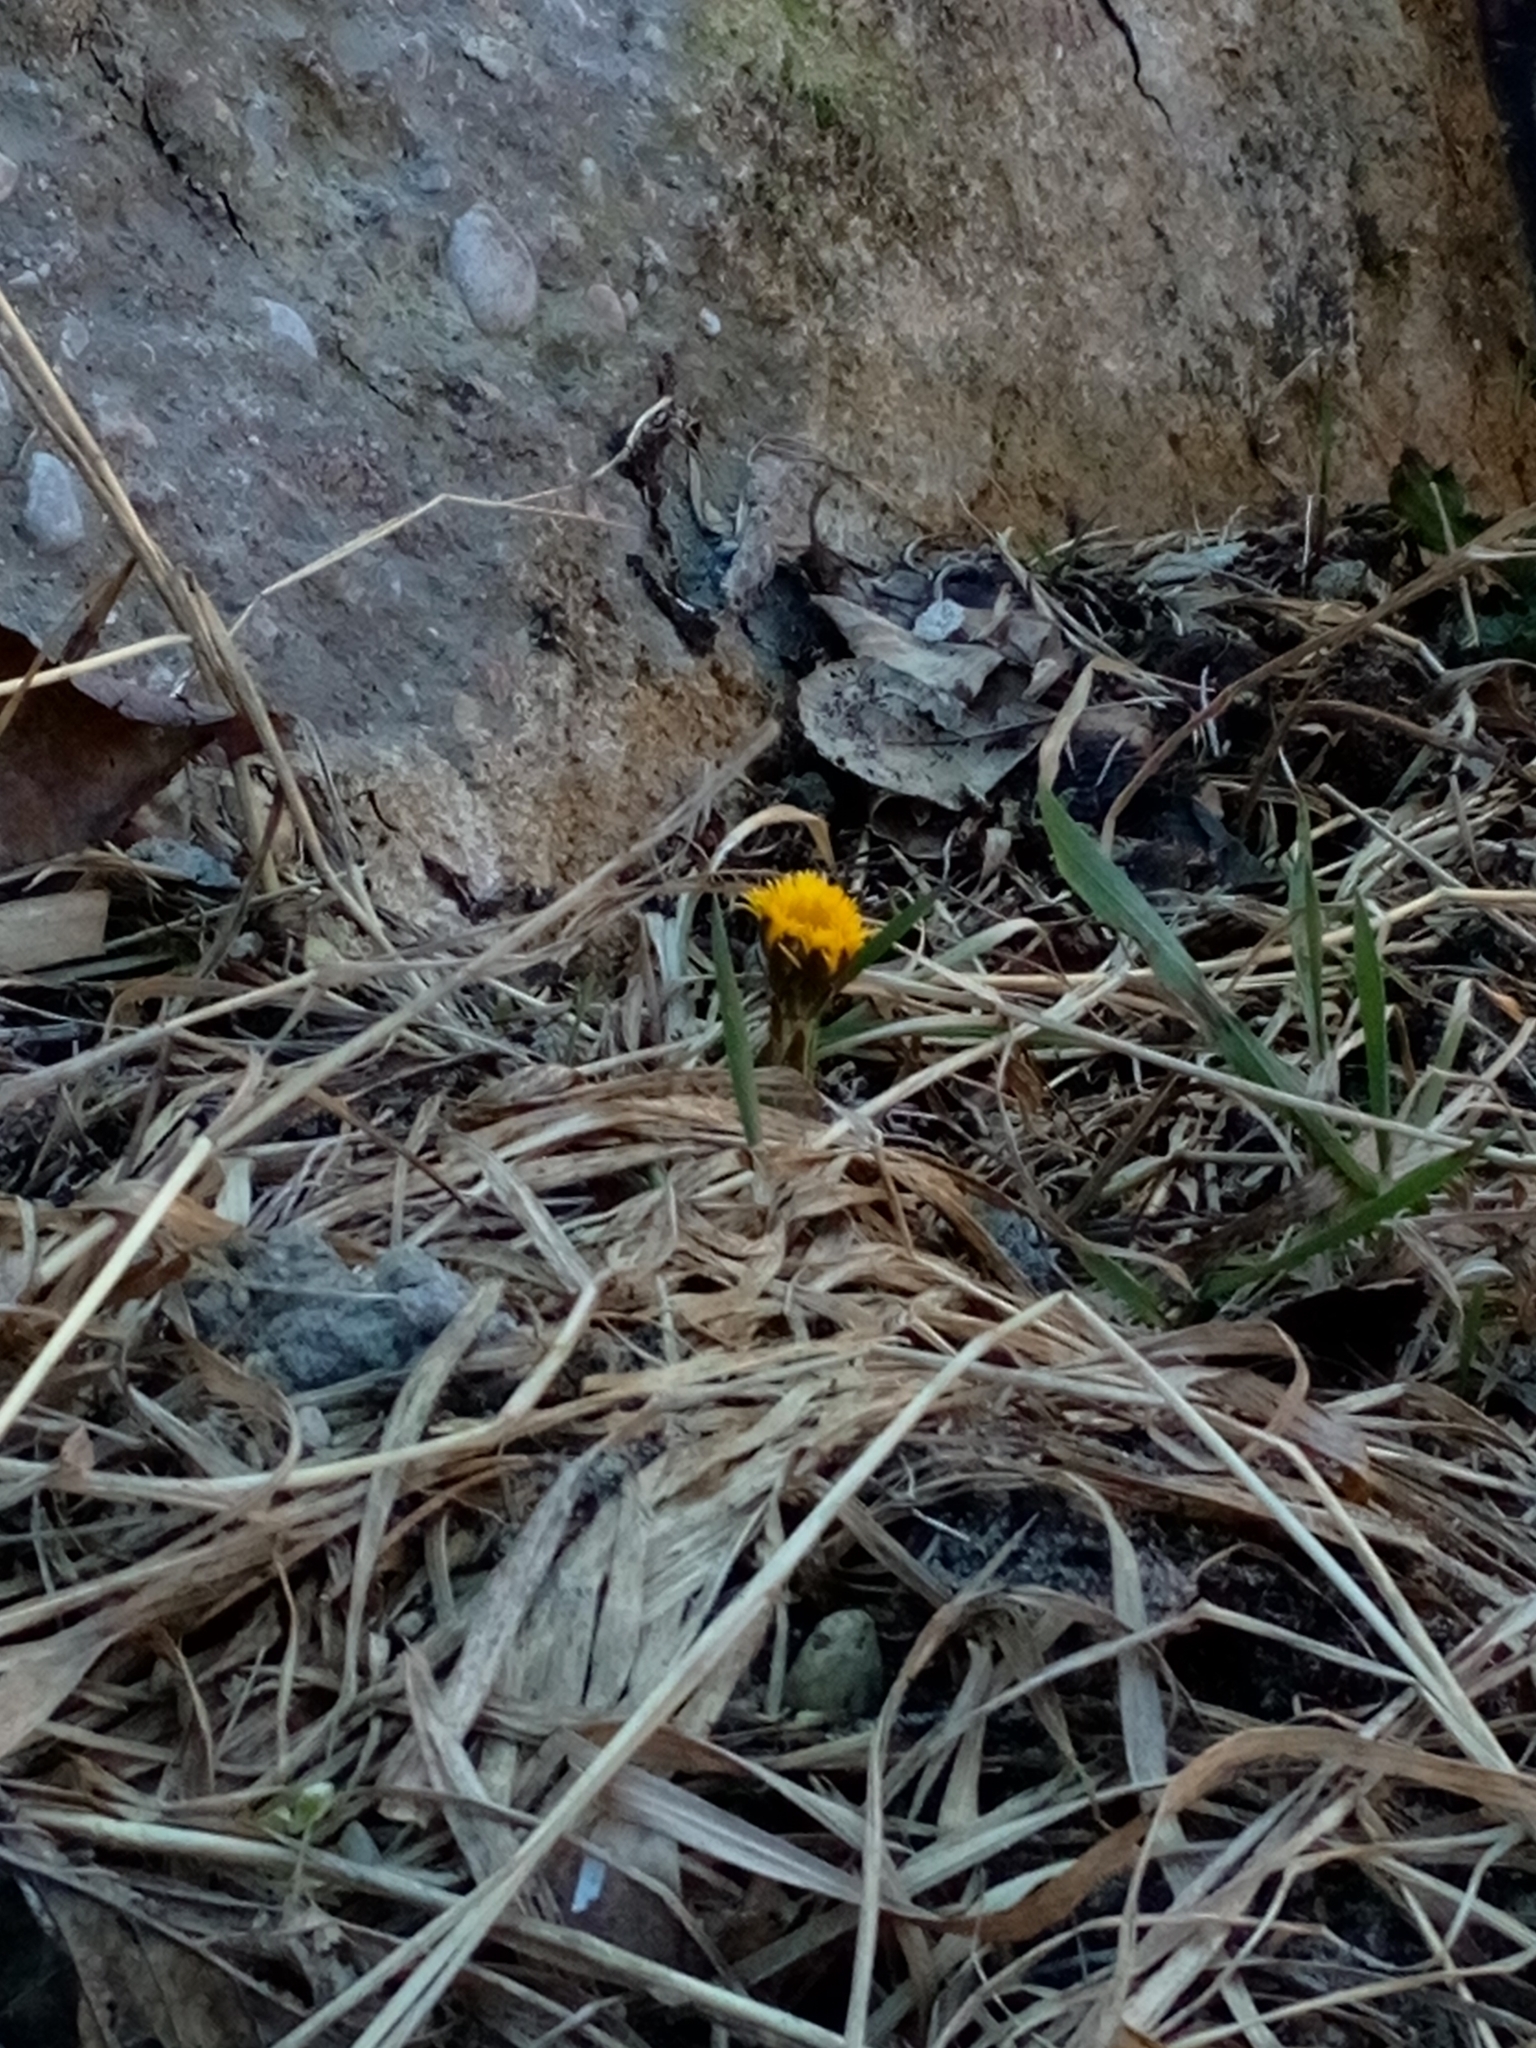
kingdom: Plantae
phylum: Tracheophyta
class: Magnoliopsida
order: Asterales
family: Asteraceae
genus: Tussilago
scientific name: Tussilago farfara
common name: Coltsfoot
